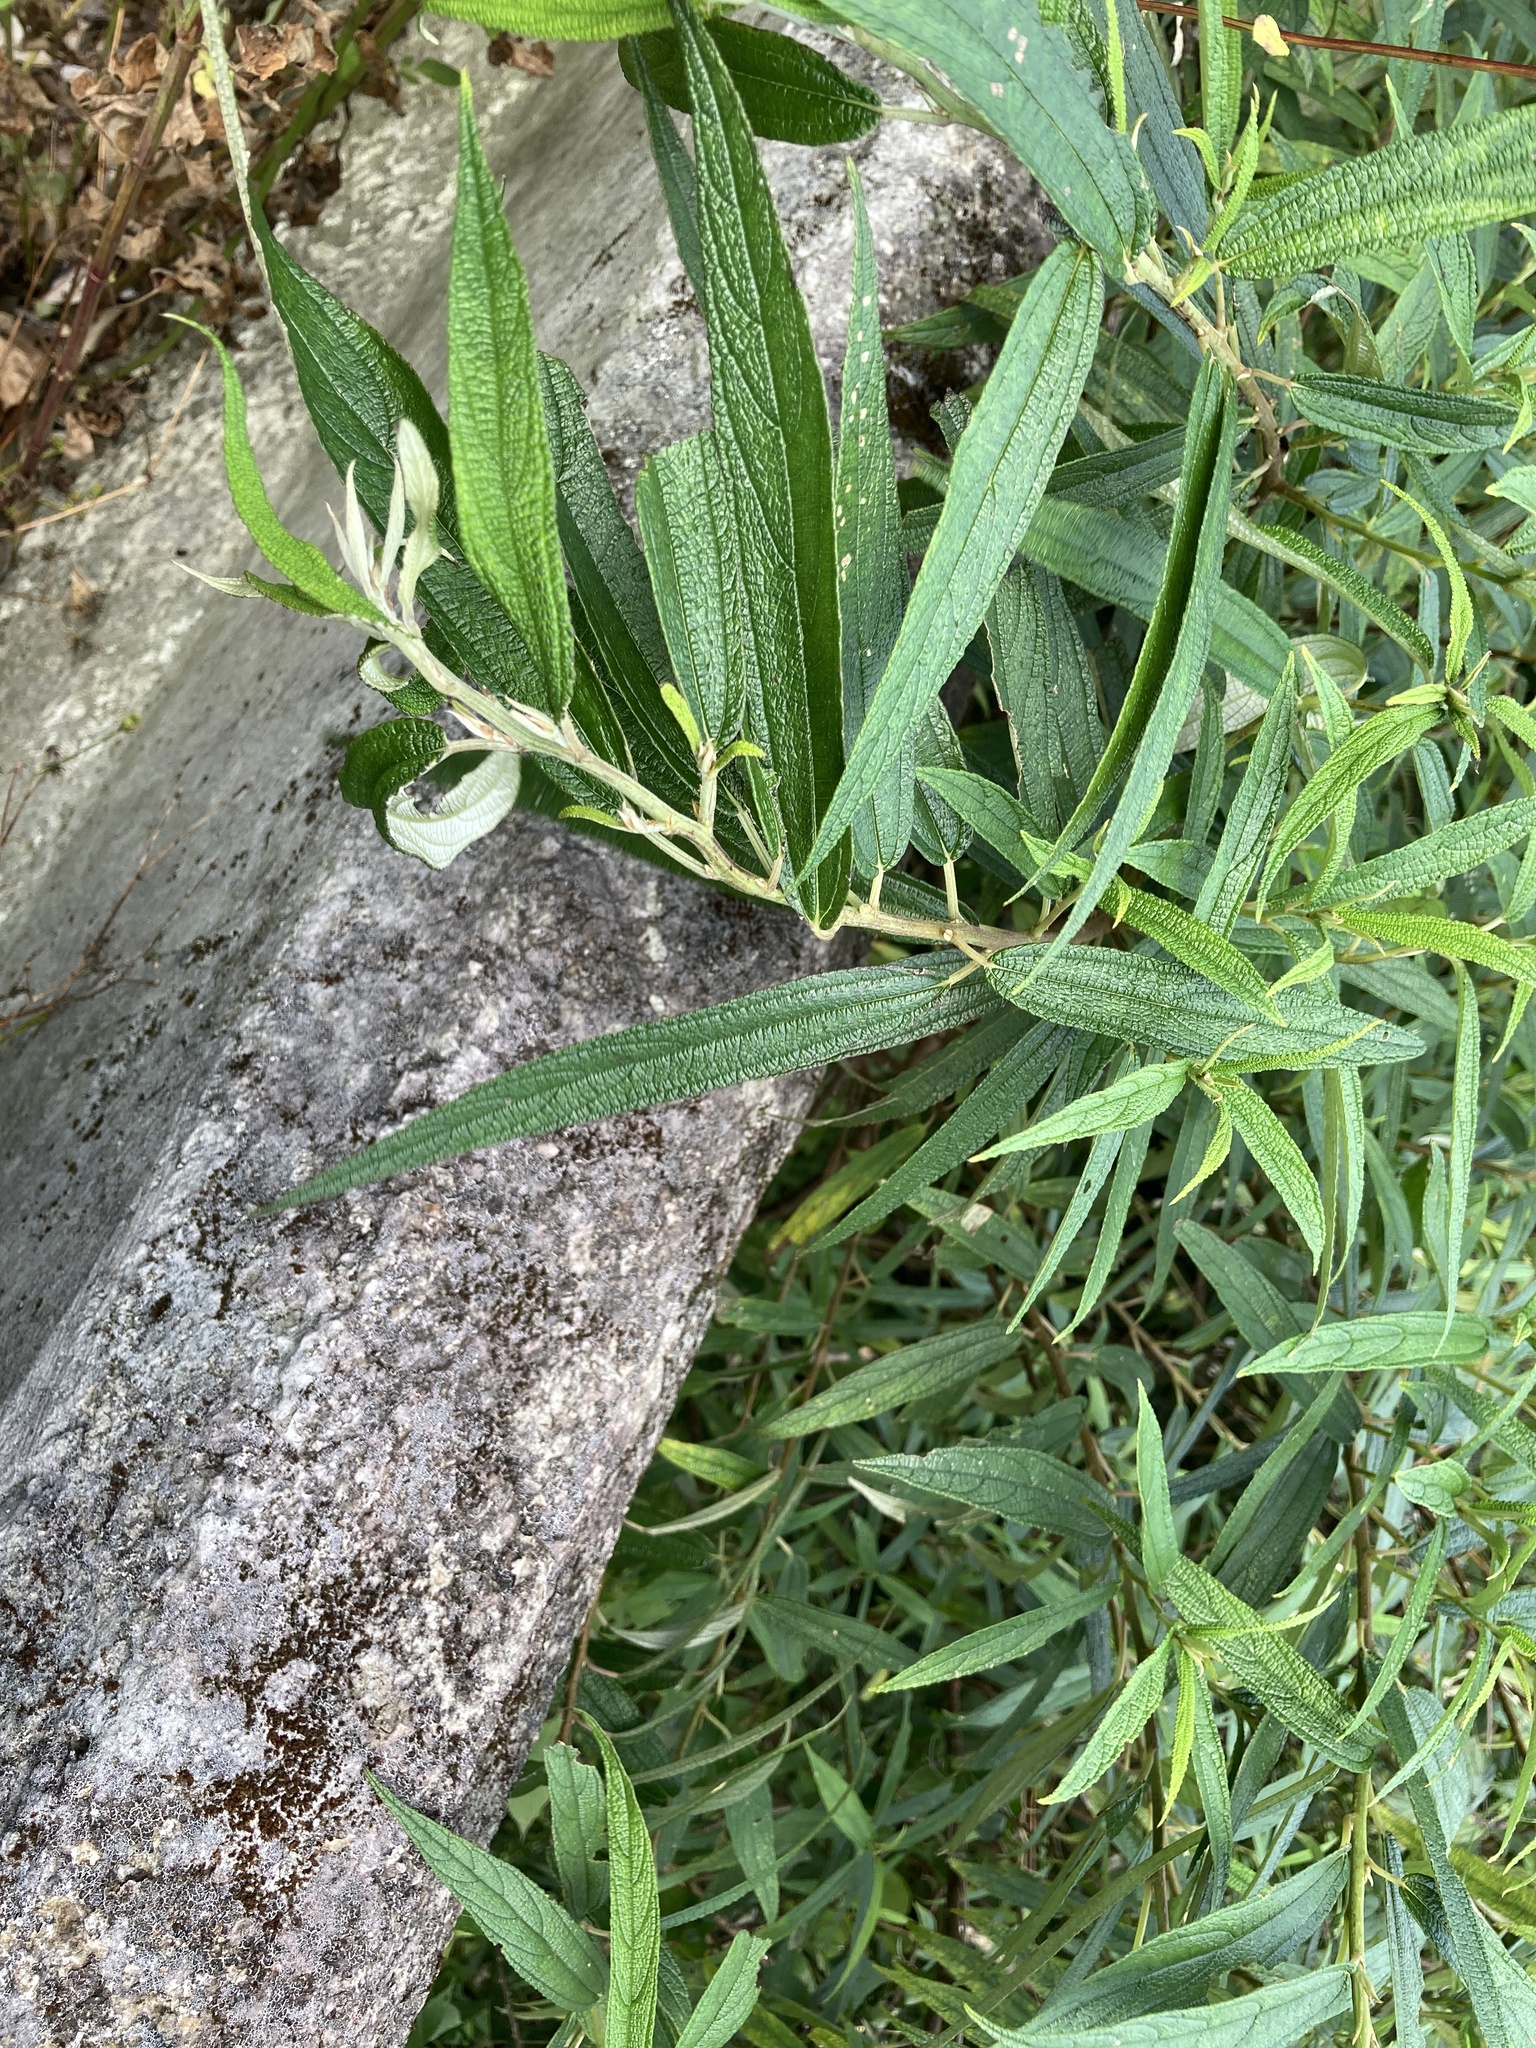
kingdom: Plantae
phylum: Tracheophyta
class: Magnoliopsida
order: Rosales
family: Urticaceae
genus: Debregeasia
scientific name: Debregeasia orientalis
